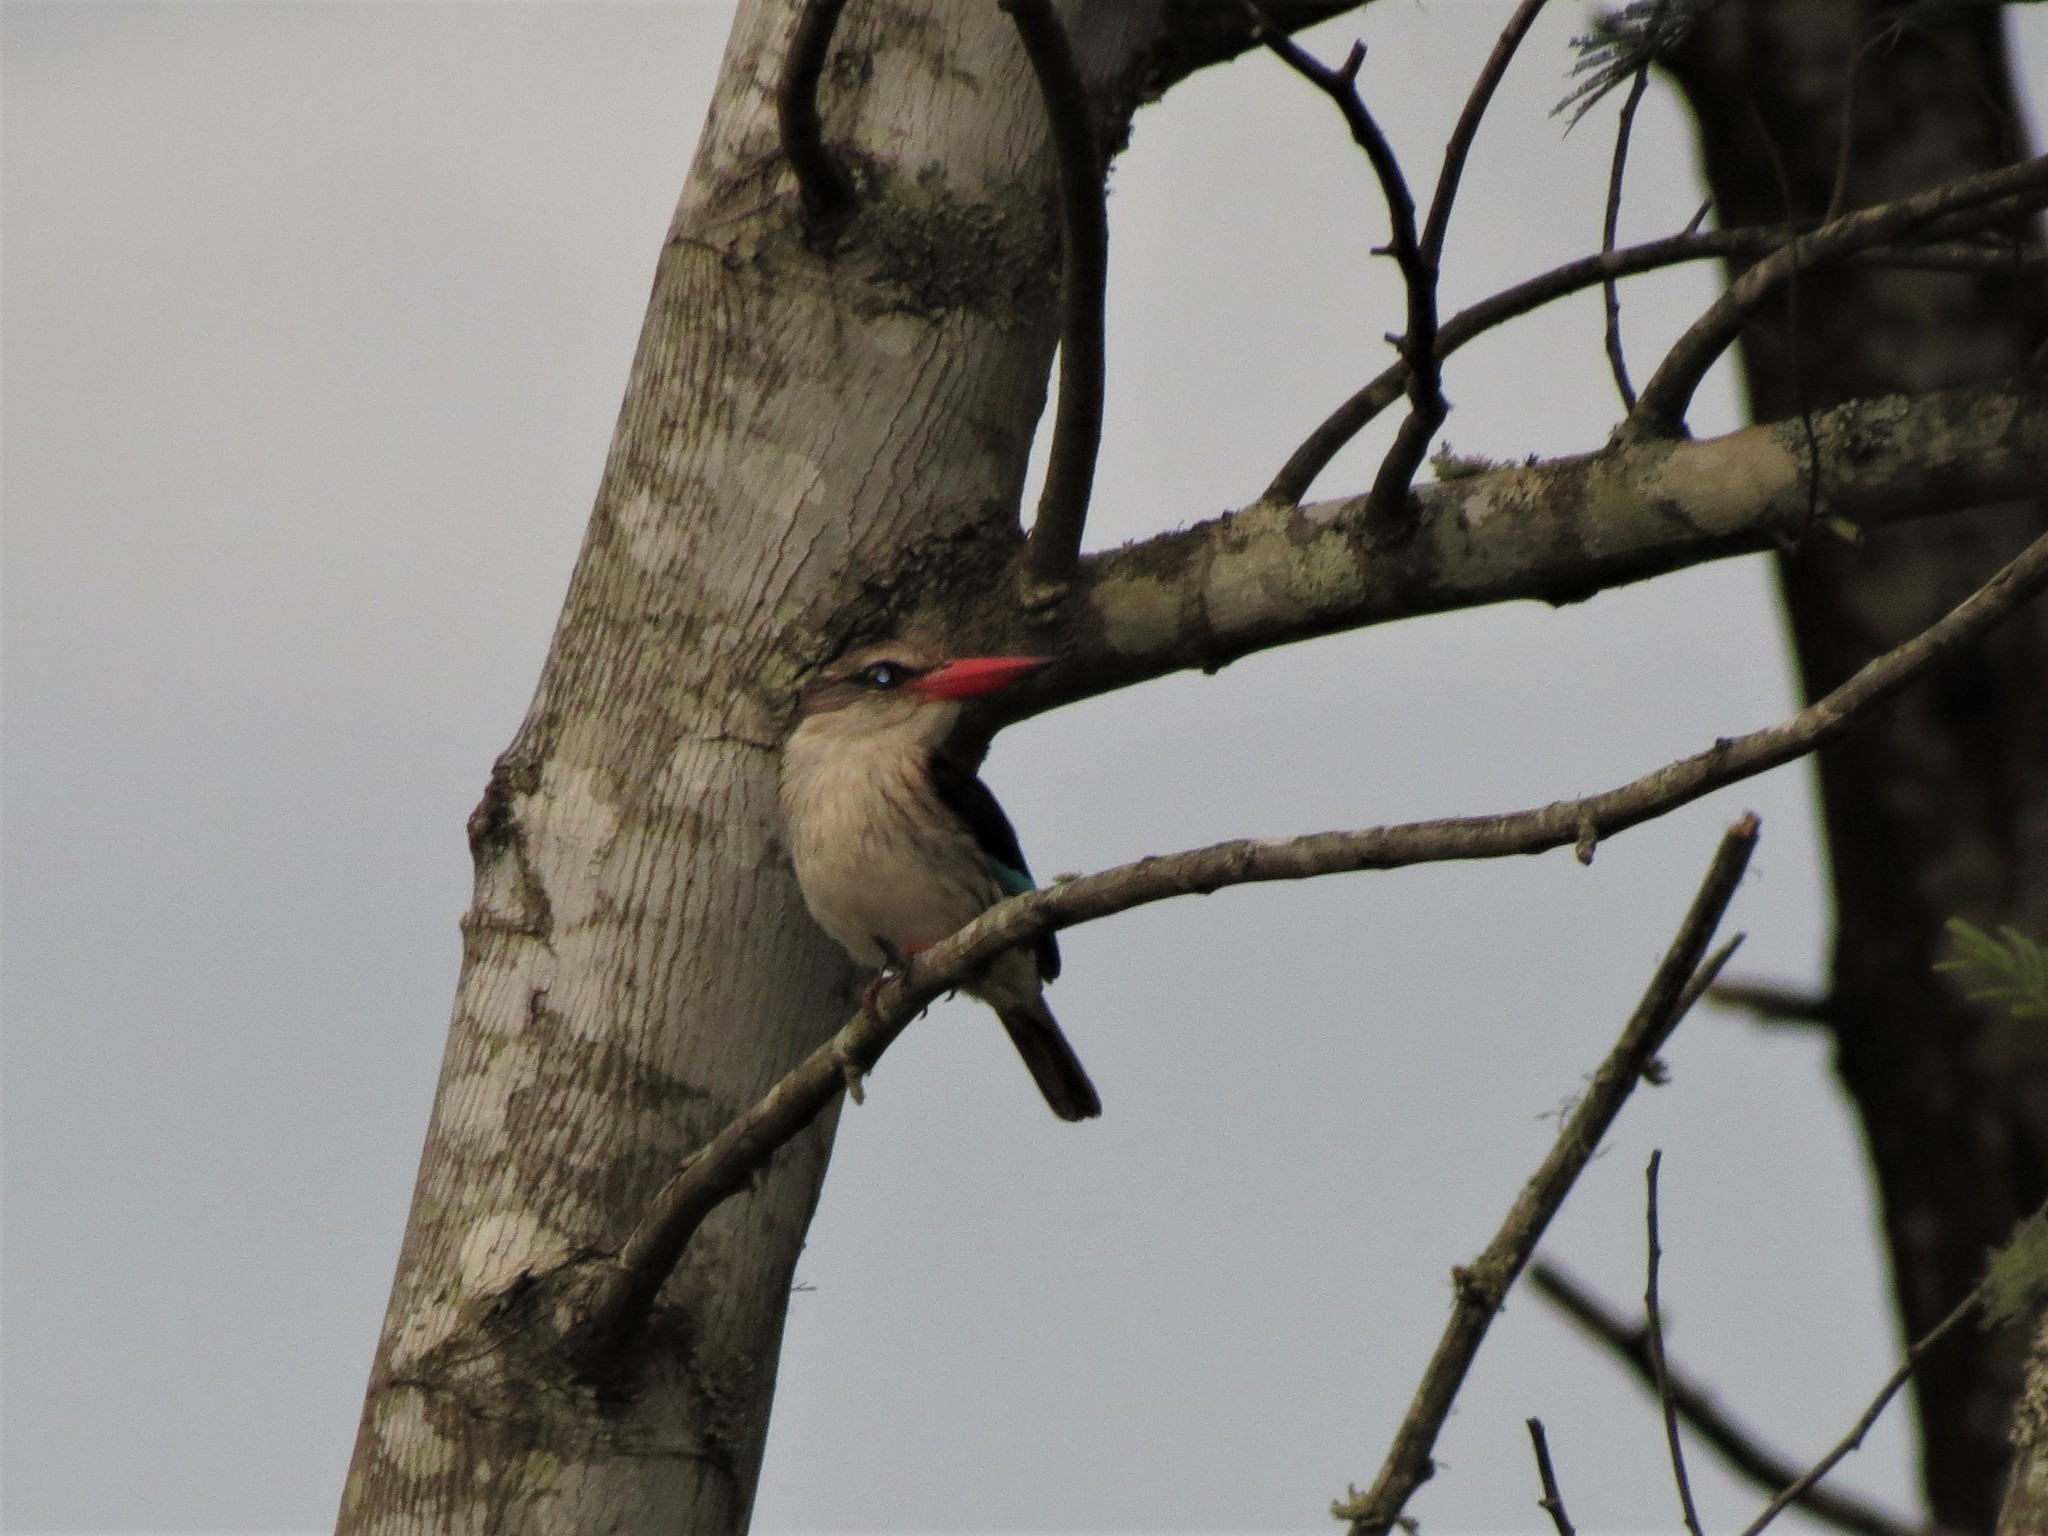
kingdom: Animalia
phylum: Chordata
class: Aves
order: Coraciiformes
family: Alcedinidae
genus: Halcyon
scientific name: Halcyon albiventris
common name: Brown-hooded kingfisher
